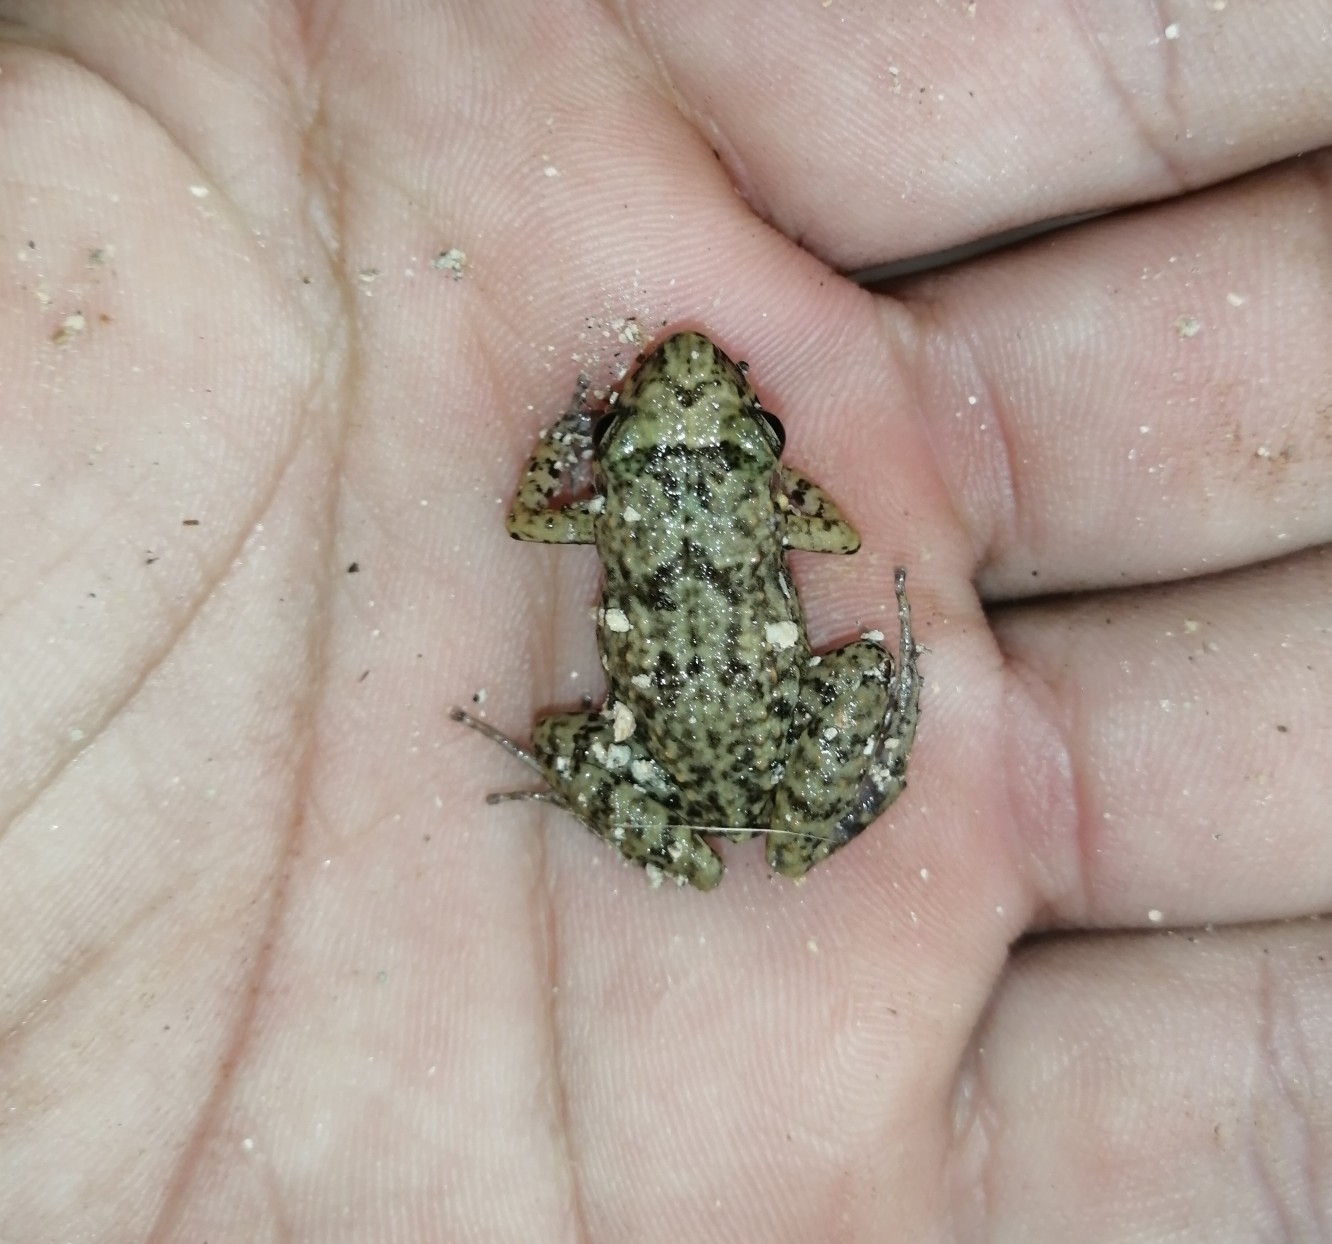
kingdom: Animalia
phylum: Chordata
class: Amphibia
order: Anura
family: Eleutherodactylidae
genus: Eleutherodactylus
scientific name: Eleutherodactylus planirostris
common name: Greenhouse frog
